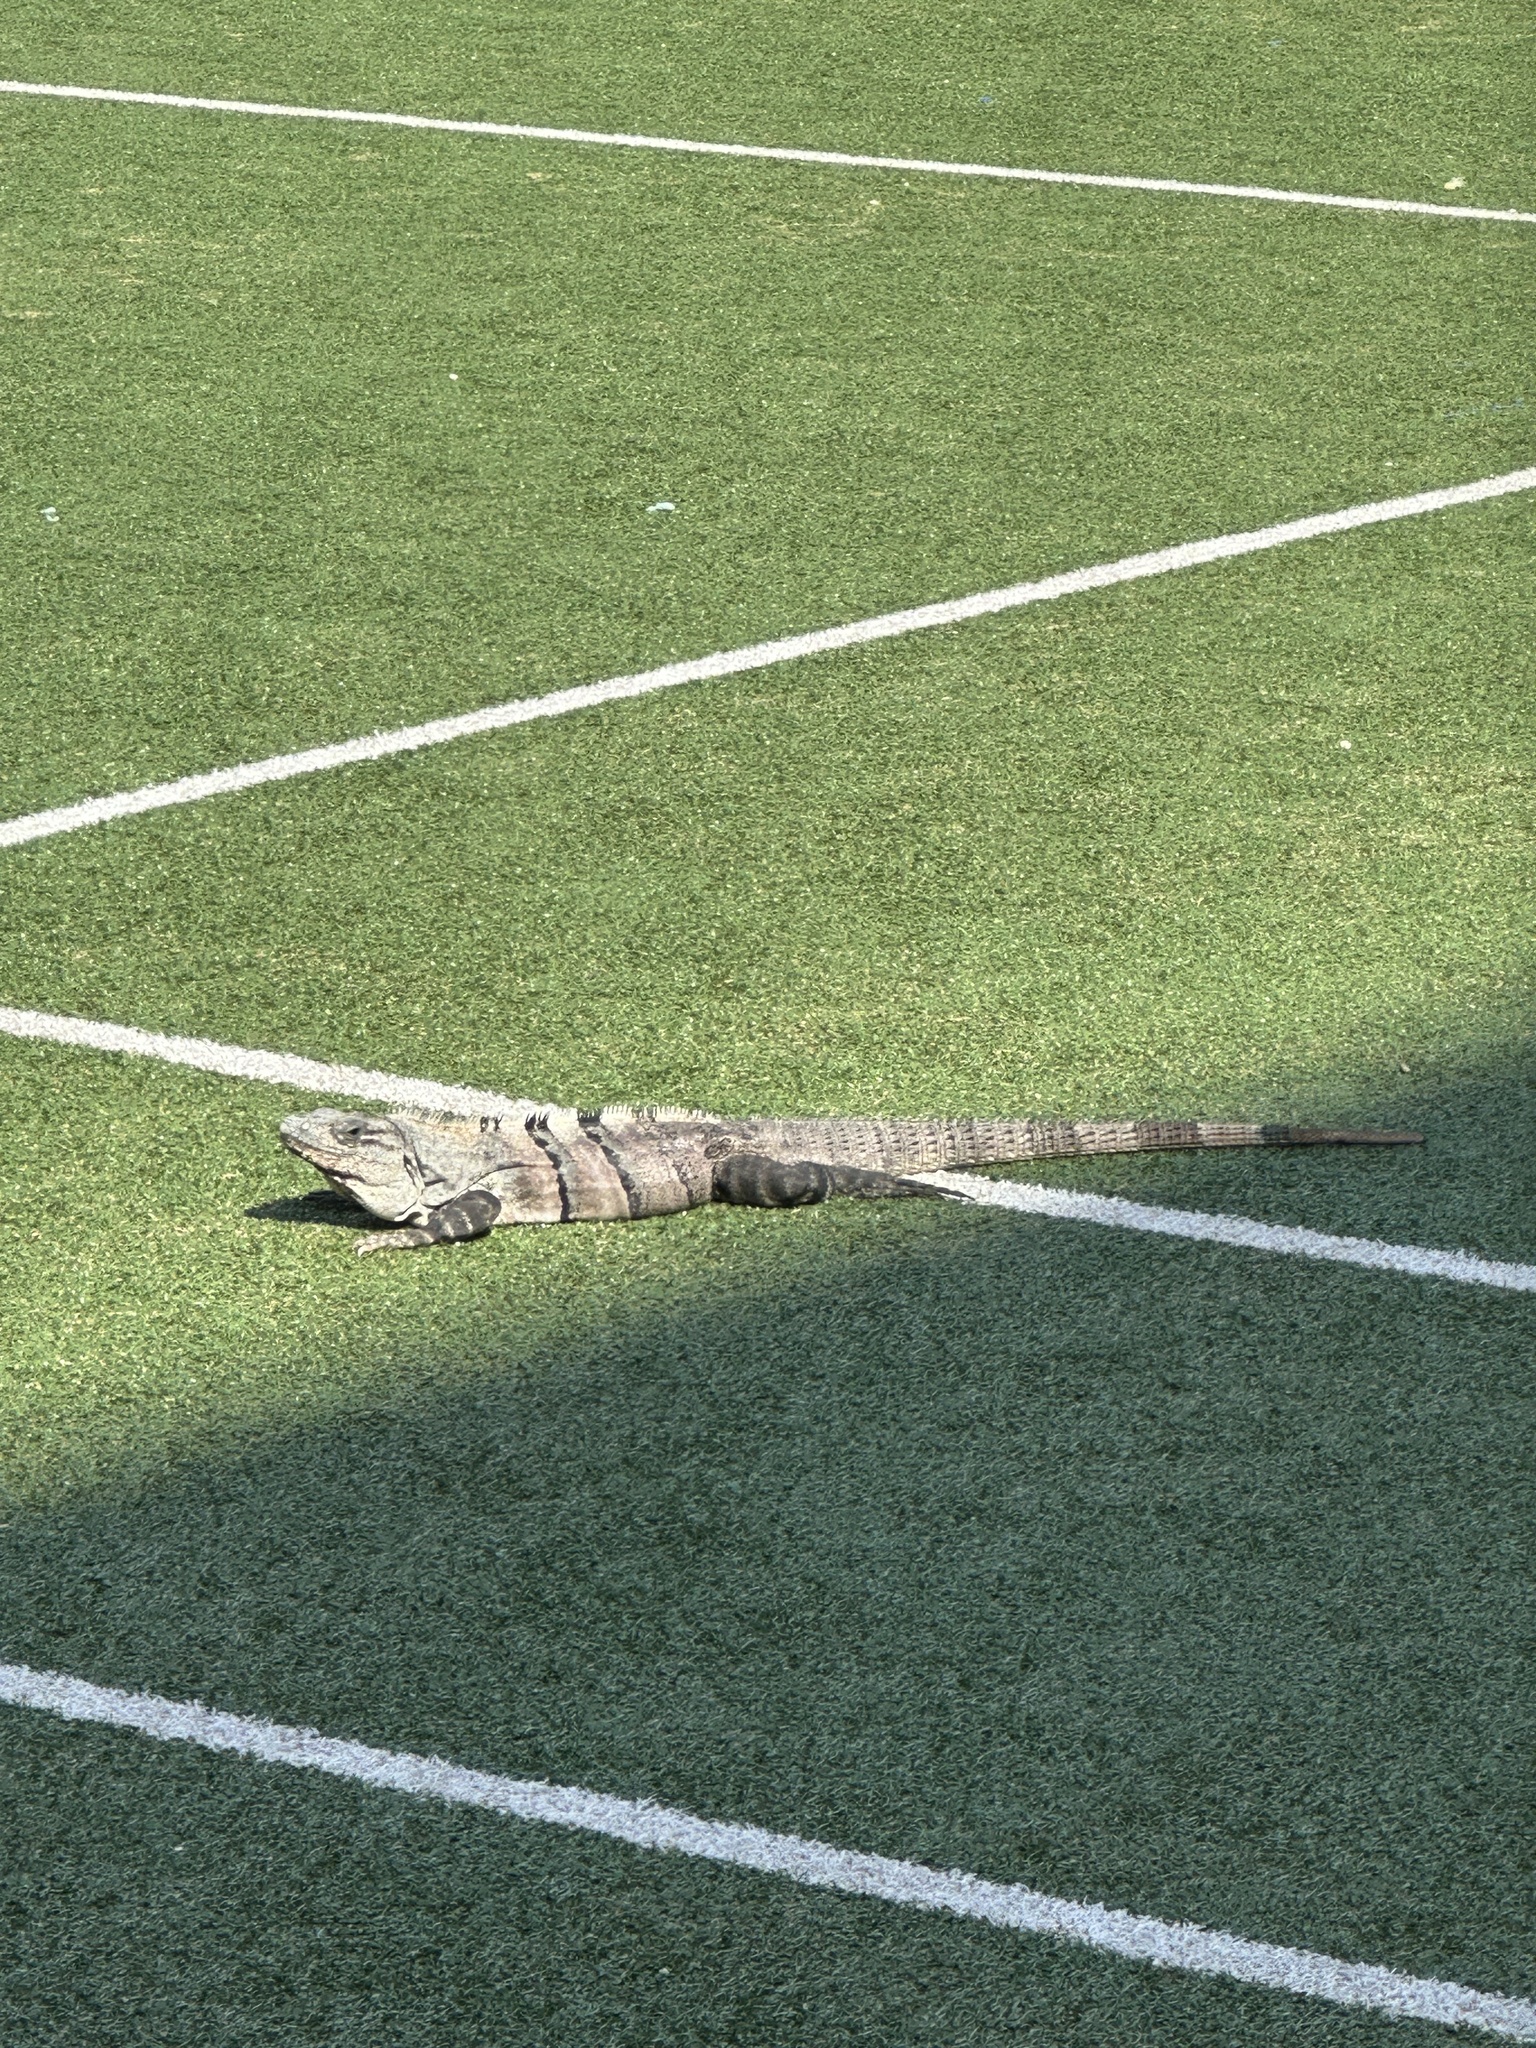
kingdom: Animalia
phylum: Chordata
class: Squamata
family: Iguanidae
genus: Ctenosaura
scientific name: Ctenosaura similis
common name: Black spiny-tailed iguana
